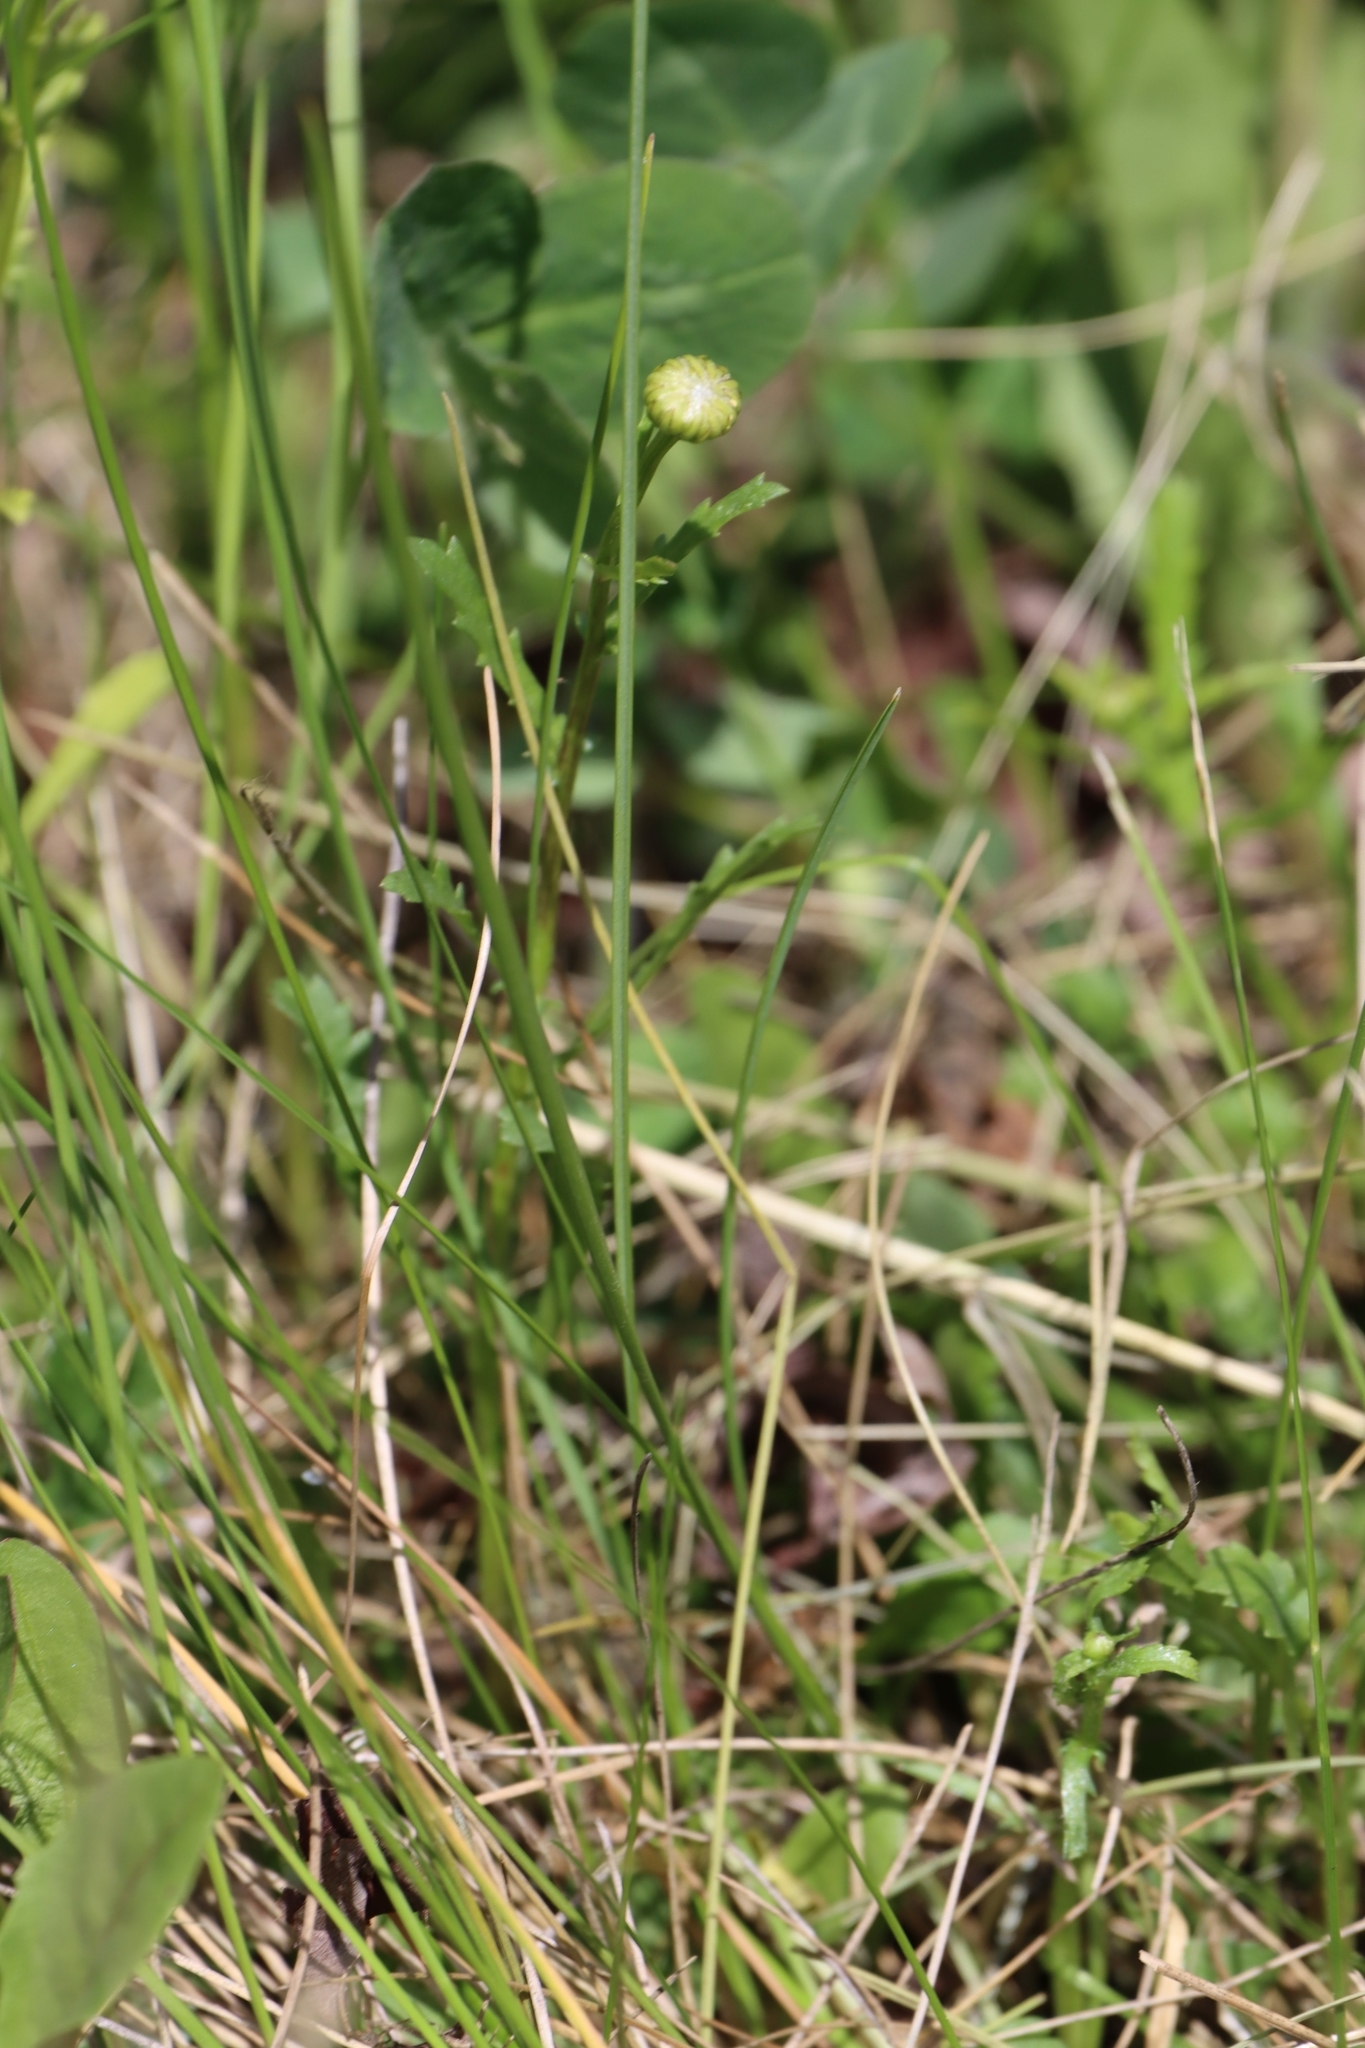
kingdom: Plantae
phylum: Tracheophyta
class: Magnoliopsida
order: Asterales
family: Asteraceae
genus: Leucanthemum
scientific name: Leucanthemum vulgare
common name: Oxeye daisy
